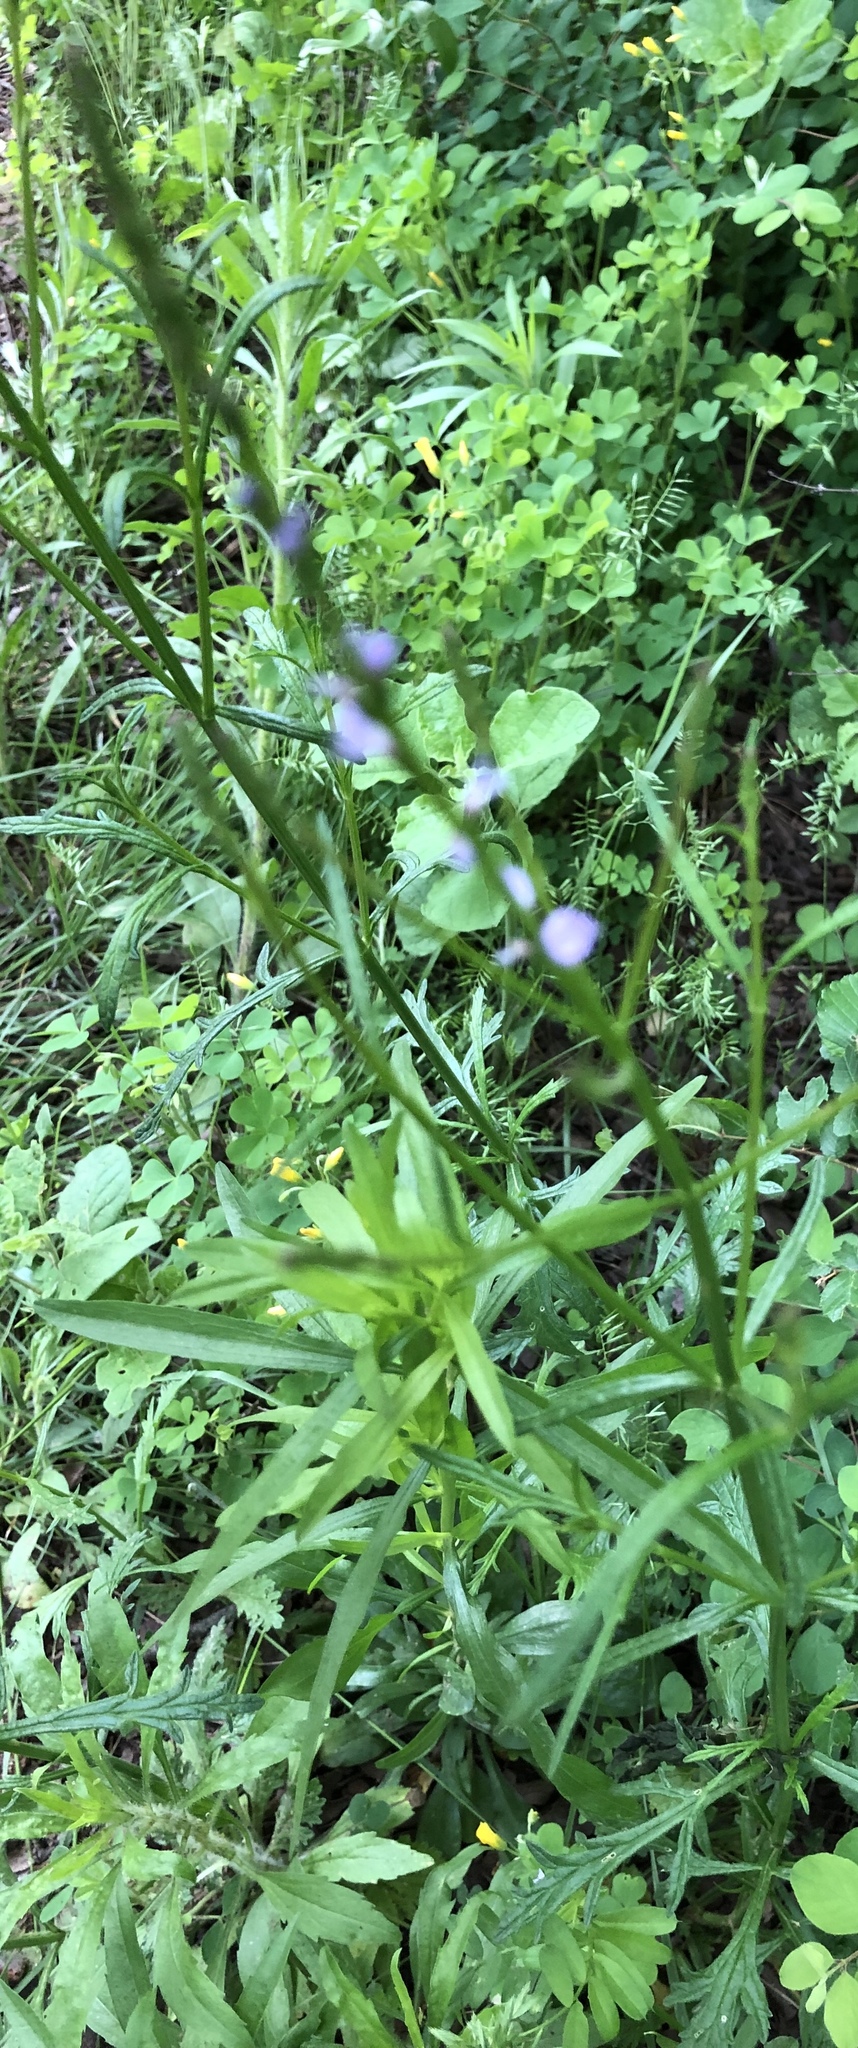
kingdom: Plantae
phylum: Tracheophyta
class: Magnoliopsida
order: Lamiales
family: Verbenaceae
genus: Verbena
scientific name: Verbena halei
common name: Texas vervain
